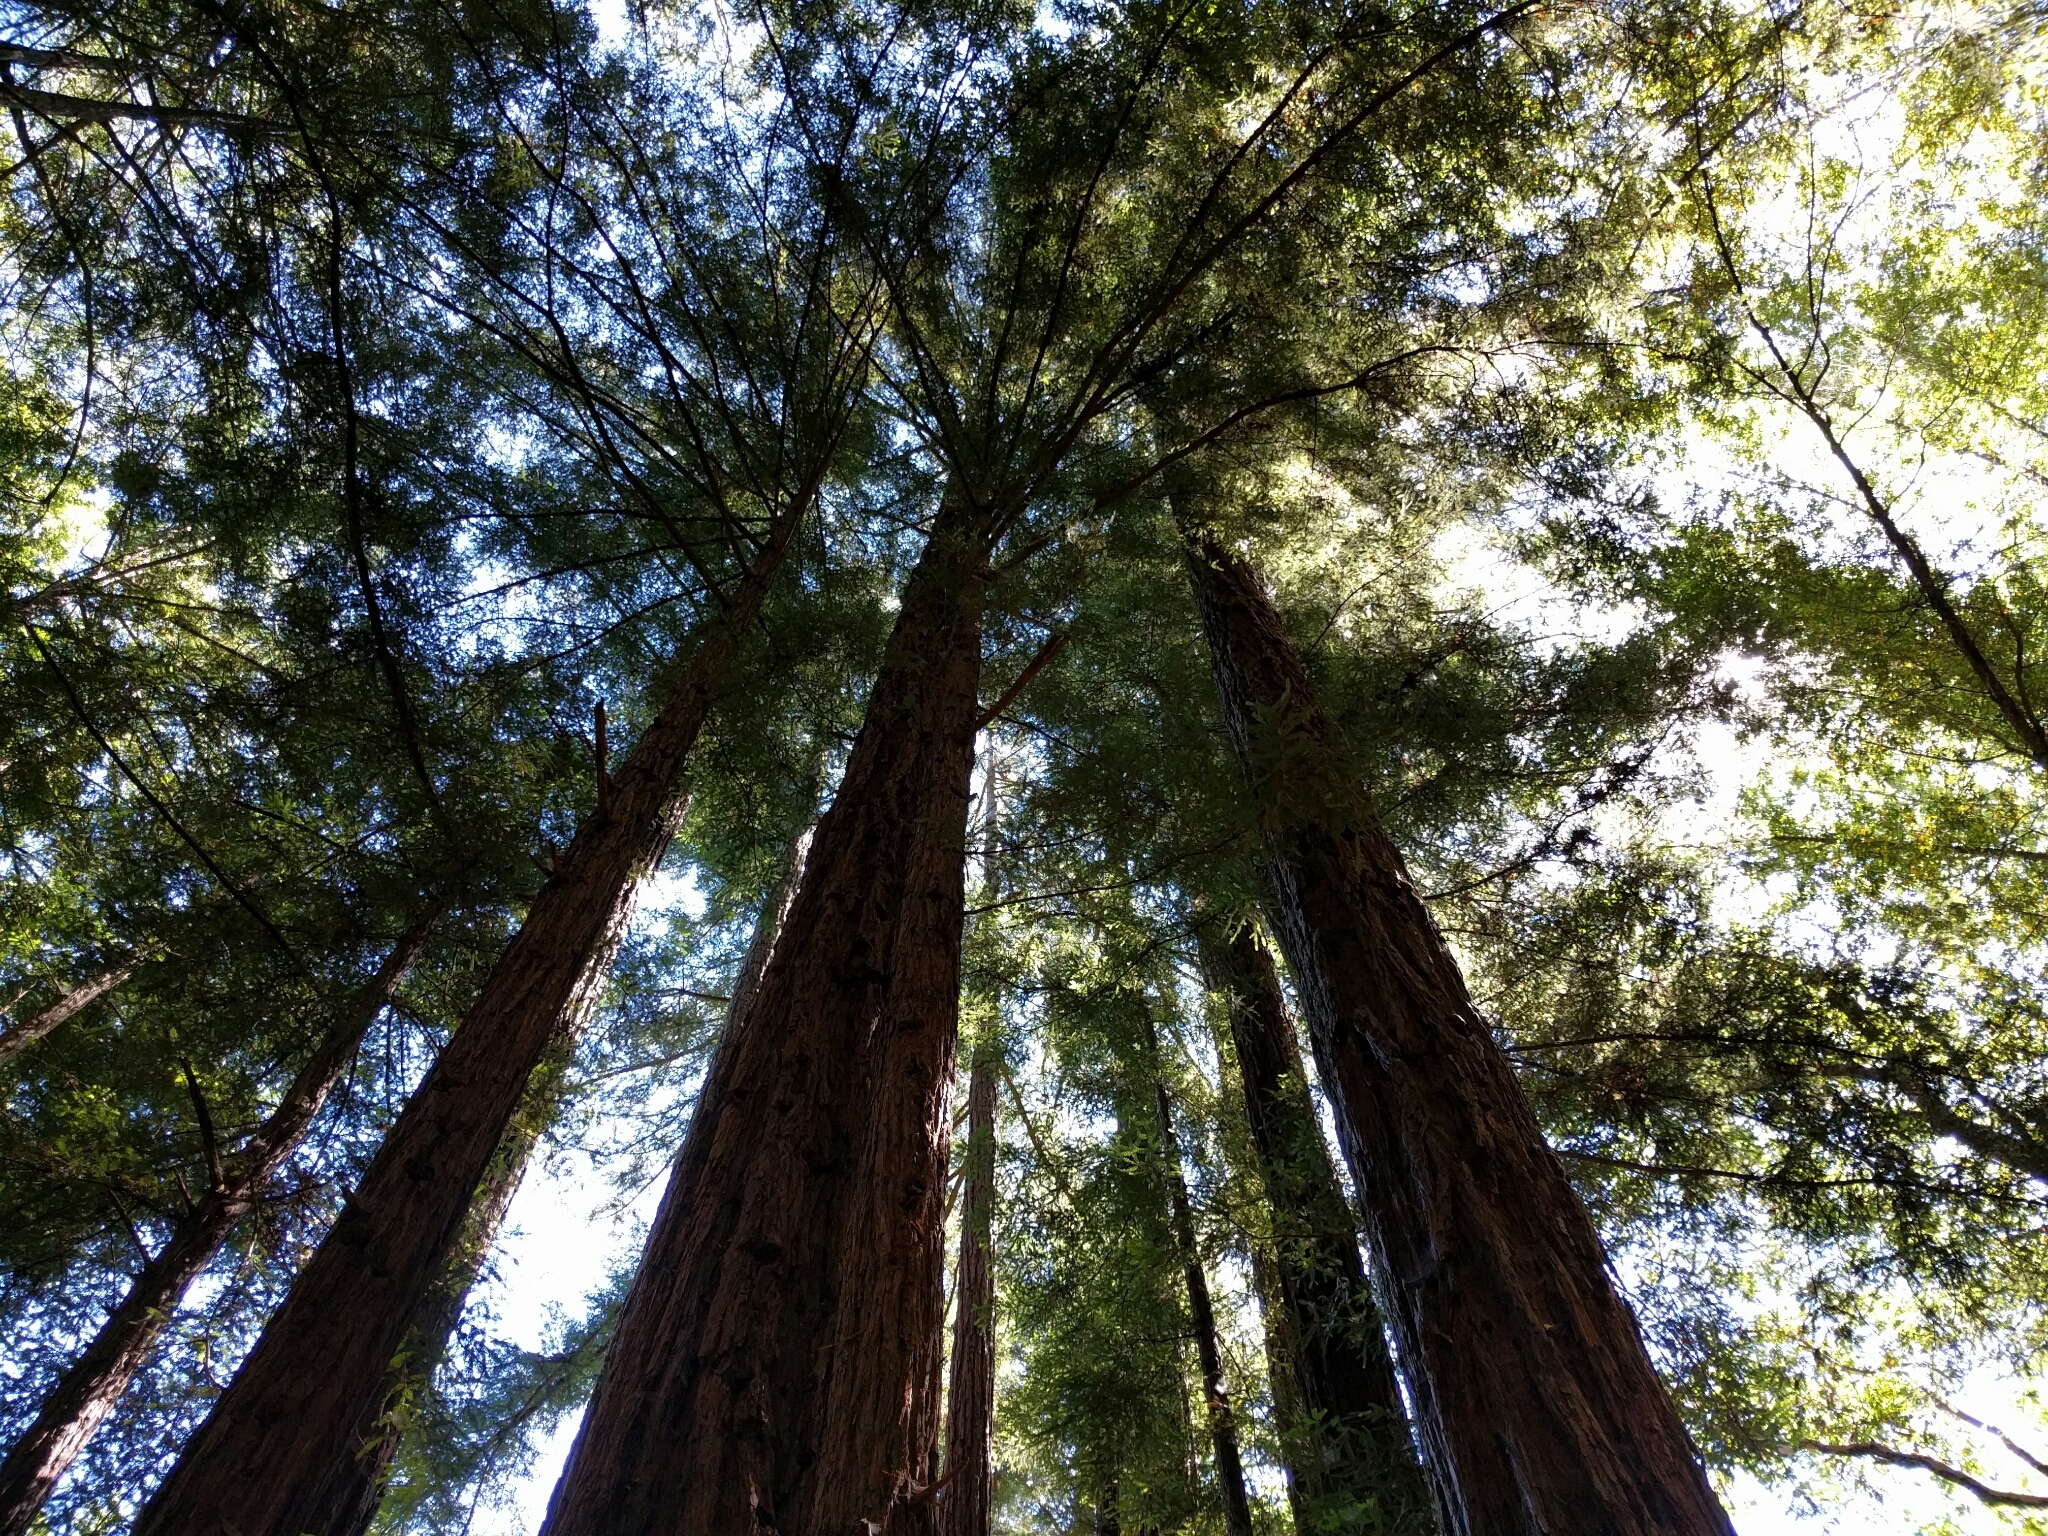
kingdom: Plantae
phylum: Tracheophyta
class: Pinopsida
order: Pinales
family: Cupressaceae
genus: Sequoia
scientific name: Sequoia sempervirens
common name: Coast redwood
